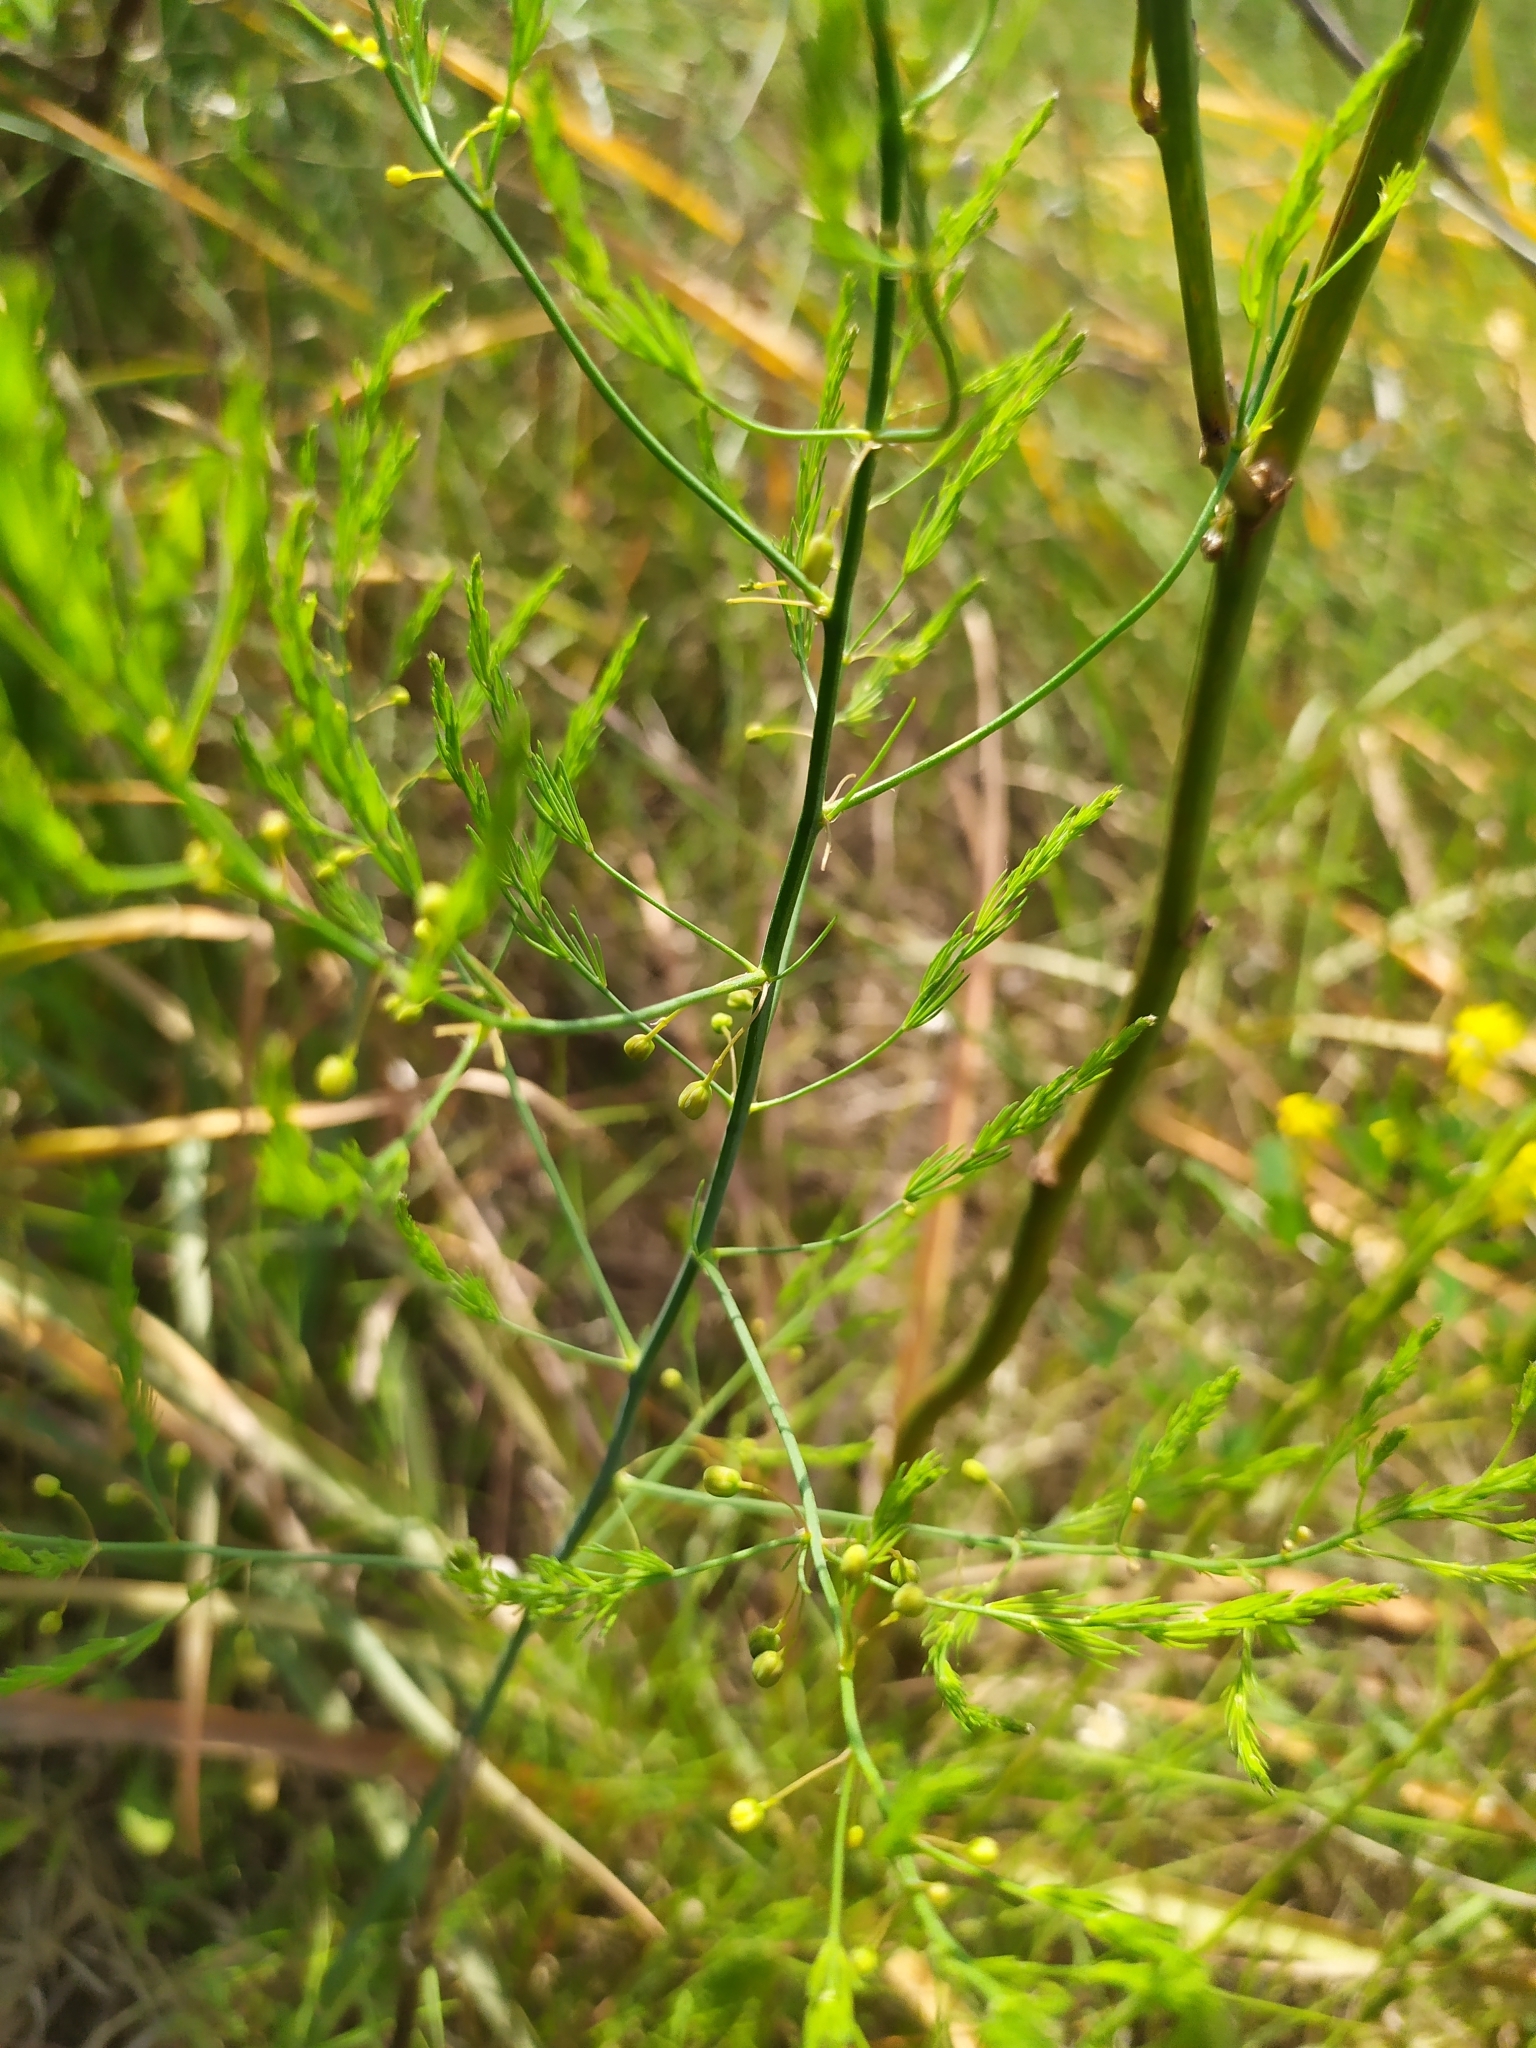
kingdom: Plantae
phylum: Tracheophyta
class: Liliopsida
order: Asparagales
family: Asparagaceae
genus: Asparagus
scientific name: Asparagus officinalis
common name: Garden asparagus
